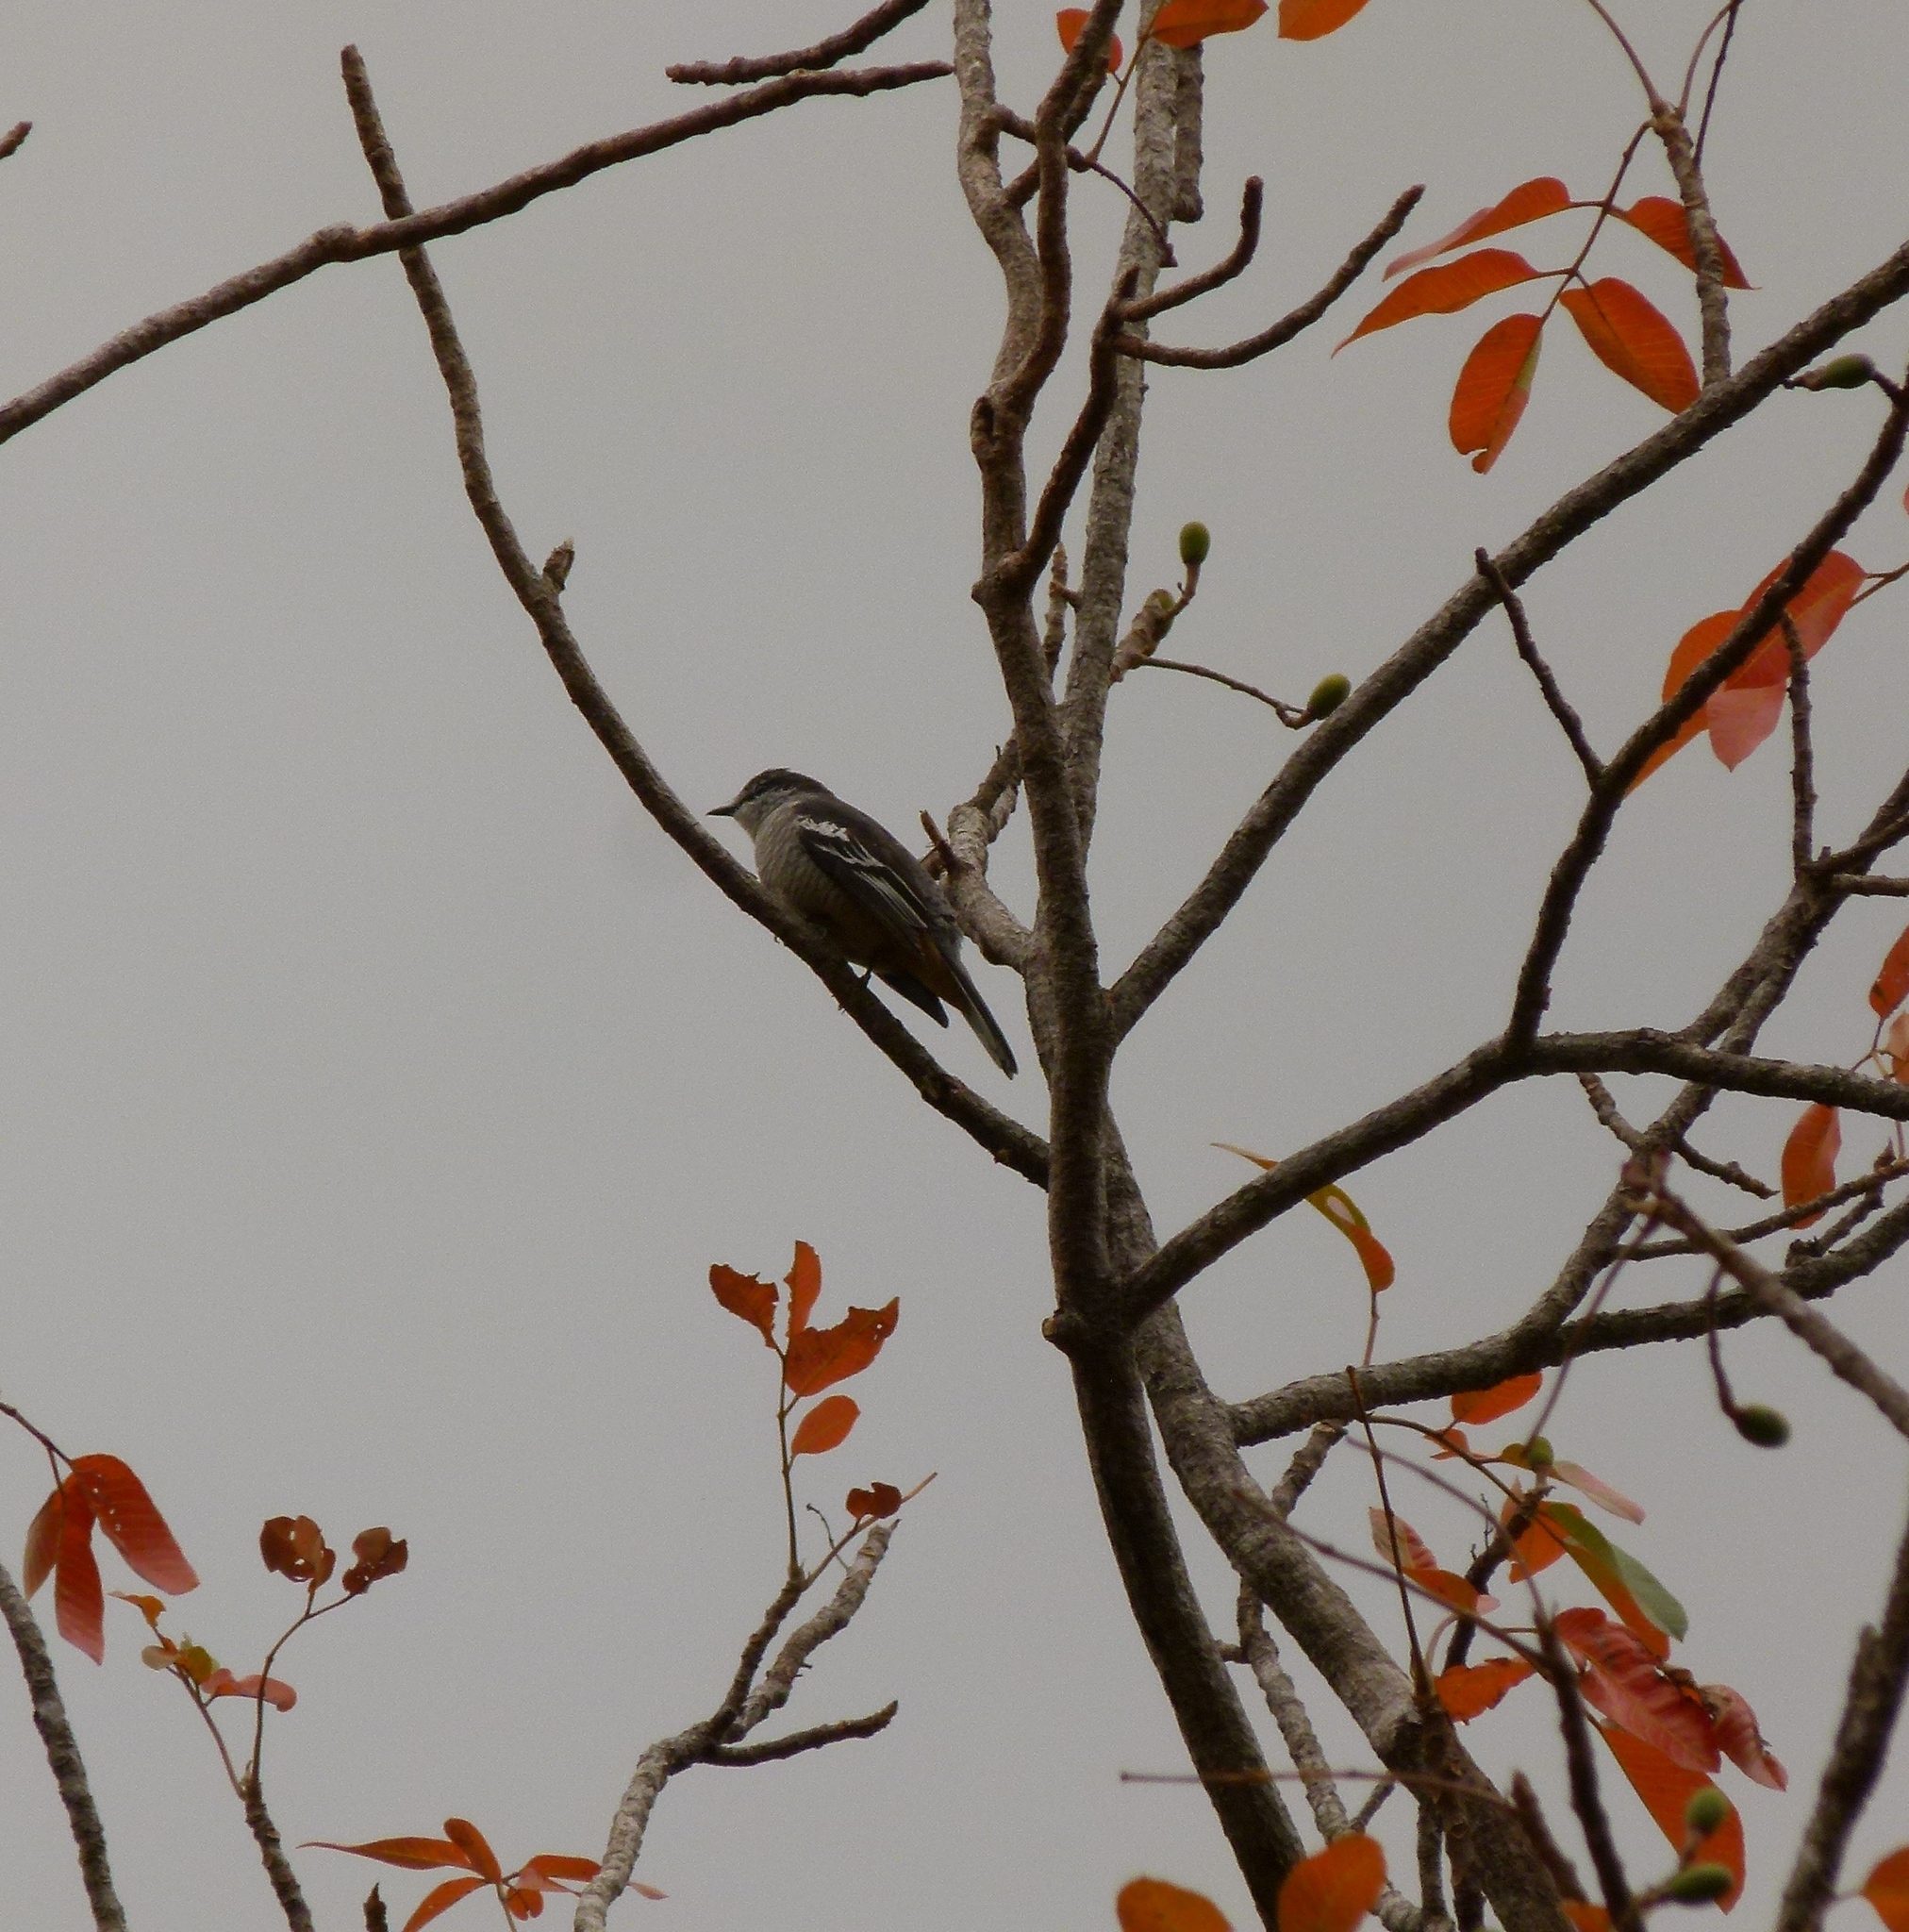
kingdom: Animalia
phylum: Chordata
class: Aves
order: Passeriformes
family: Campephagidae
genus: Lalage
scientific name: Lalage leucomela
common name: Varied triller
